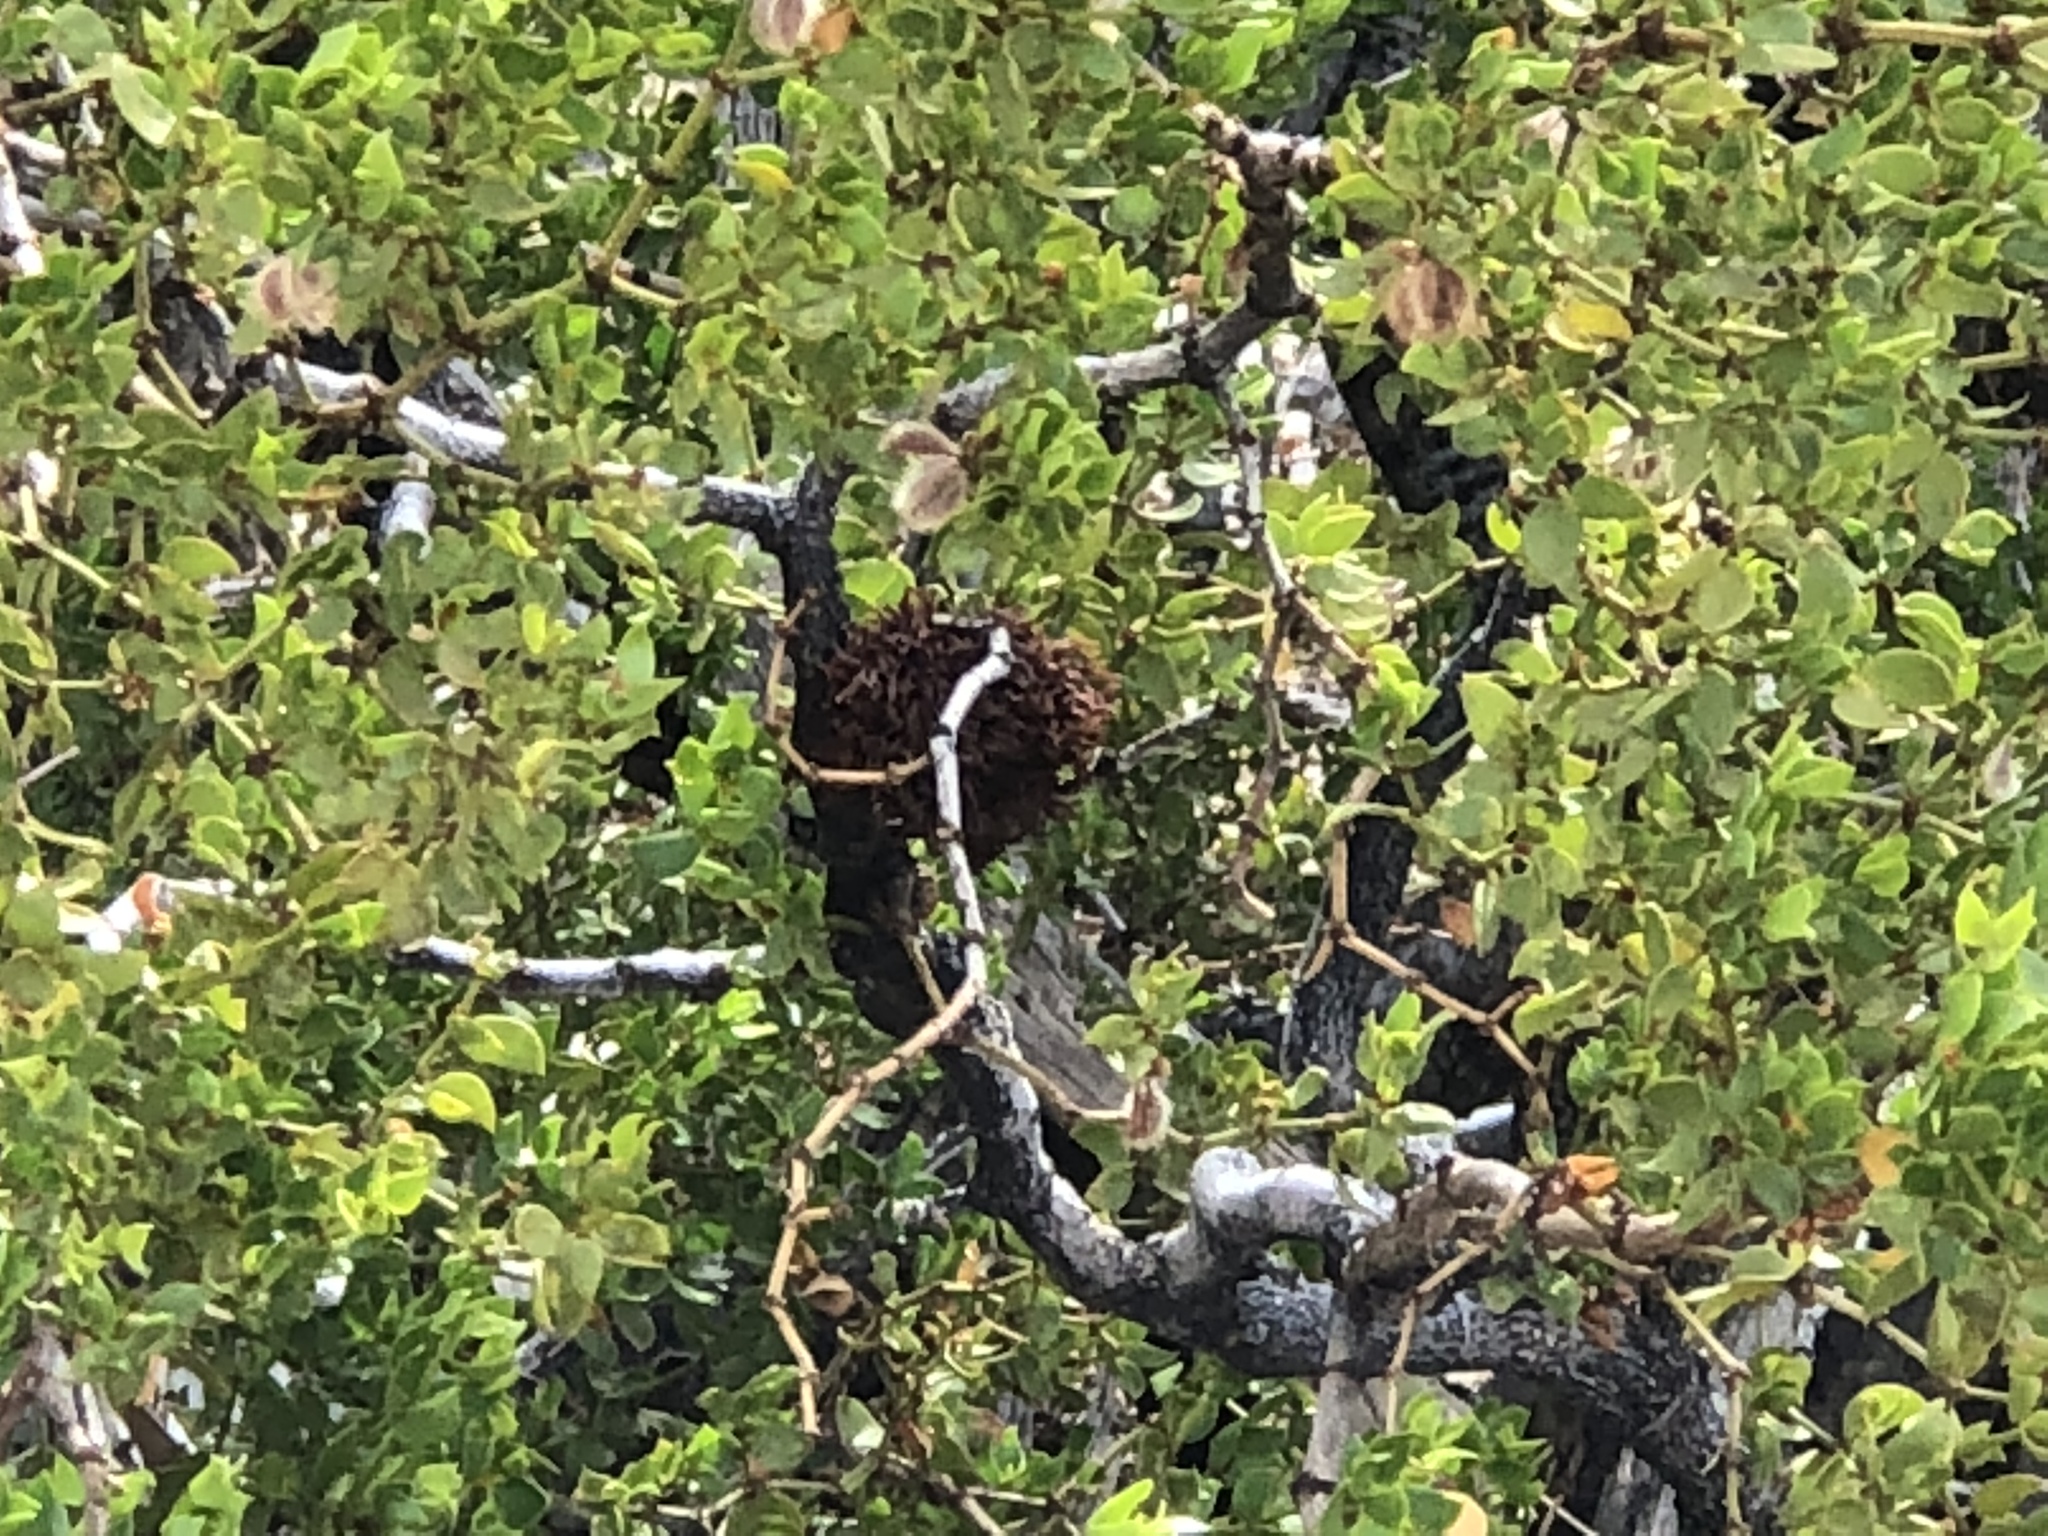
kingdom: Animalia
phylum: Arthropoda
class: Insecta
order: Diptera
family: Cecidomyiidae
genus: Asphondylia
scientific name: Asphondylia auripila
